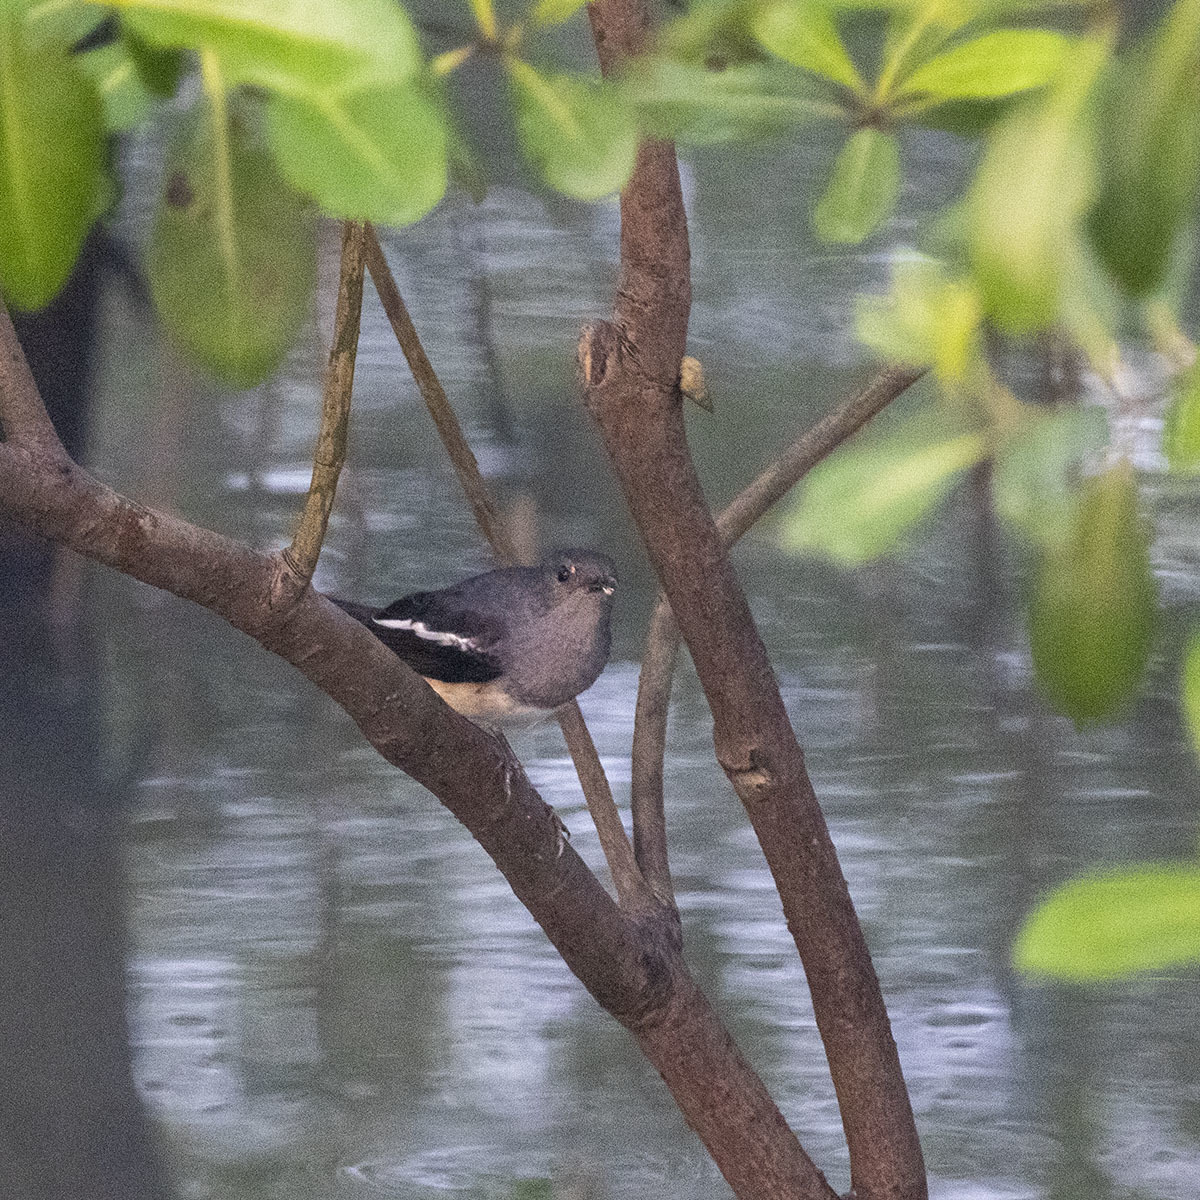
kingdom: Animalia
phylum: Chordata
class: Aves
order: Passeriformes
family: Muscicapidae
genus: Copsychus
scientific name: Copsychus saularis
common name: Oriental magpie-robin
